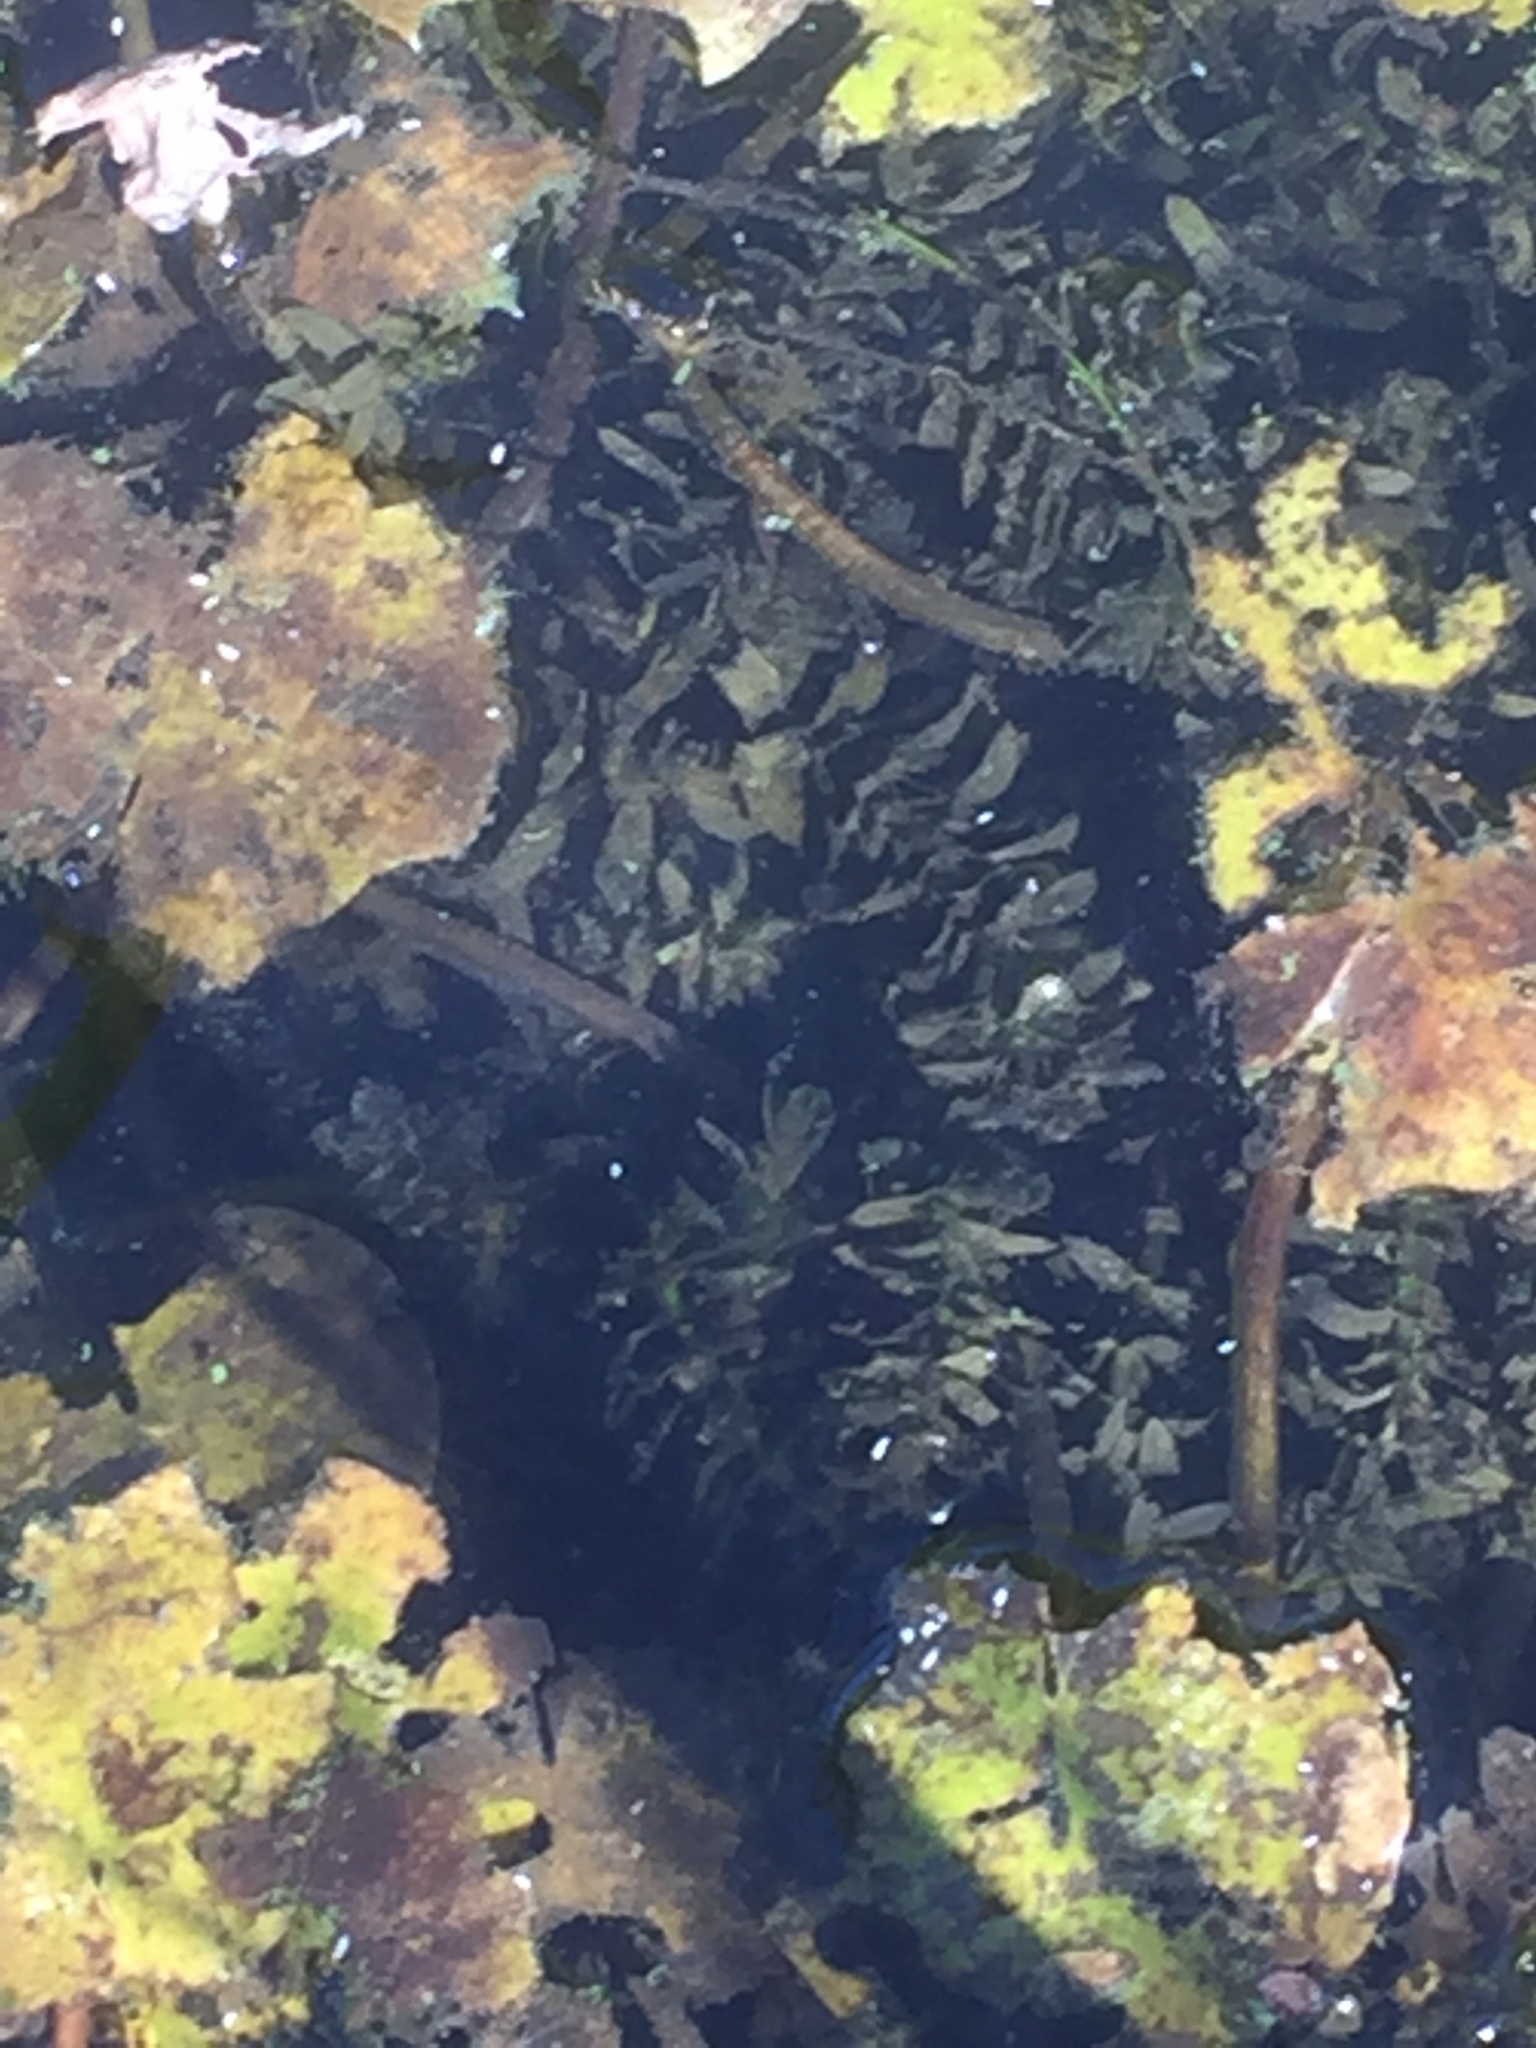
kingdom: Plantae
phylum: Tracheophyta
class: Liliopsida
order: Alismatales
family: Hydrocharitaceae
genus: Elodea
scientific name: Elodea canadensis
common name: Canadian waterweed
